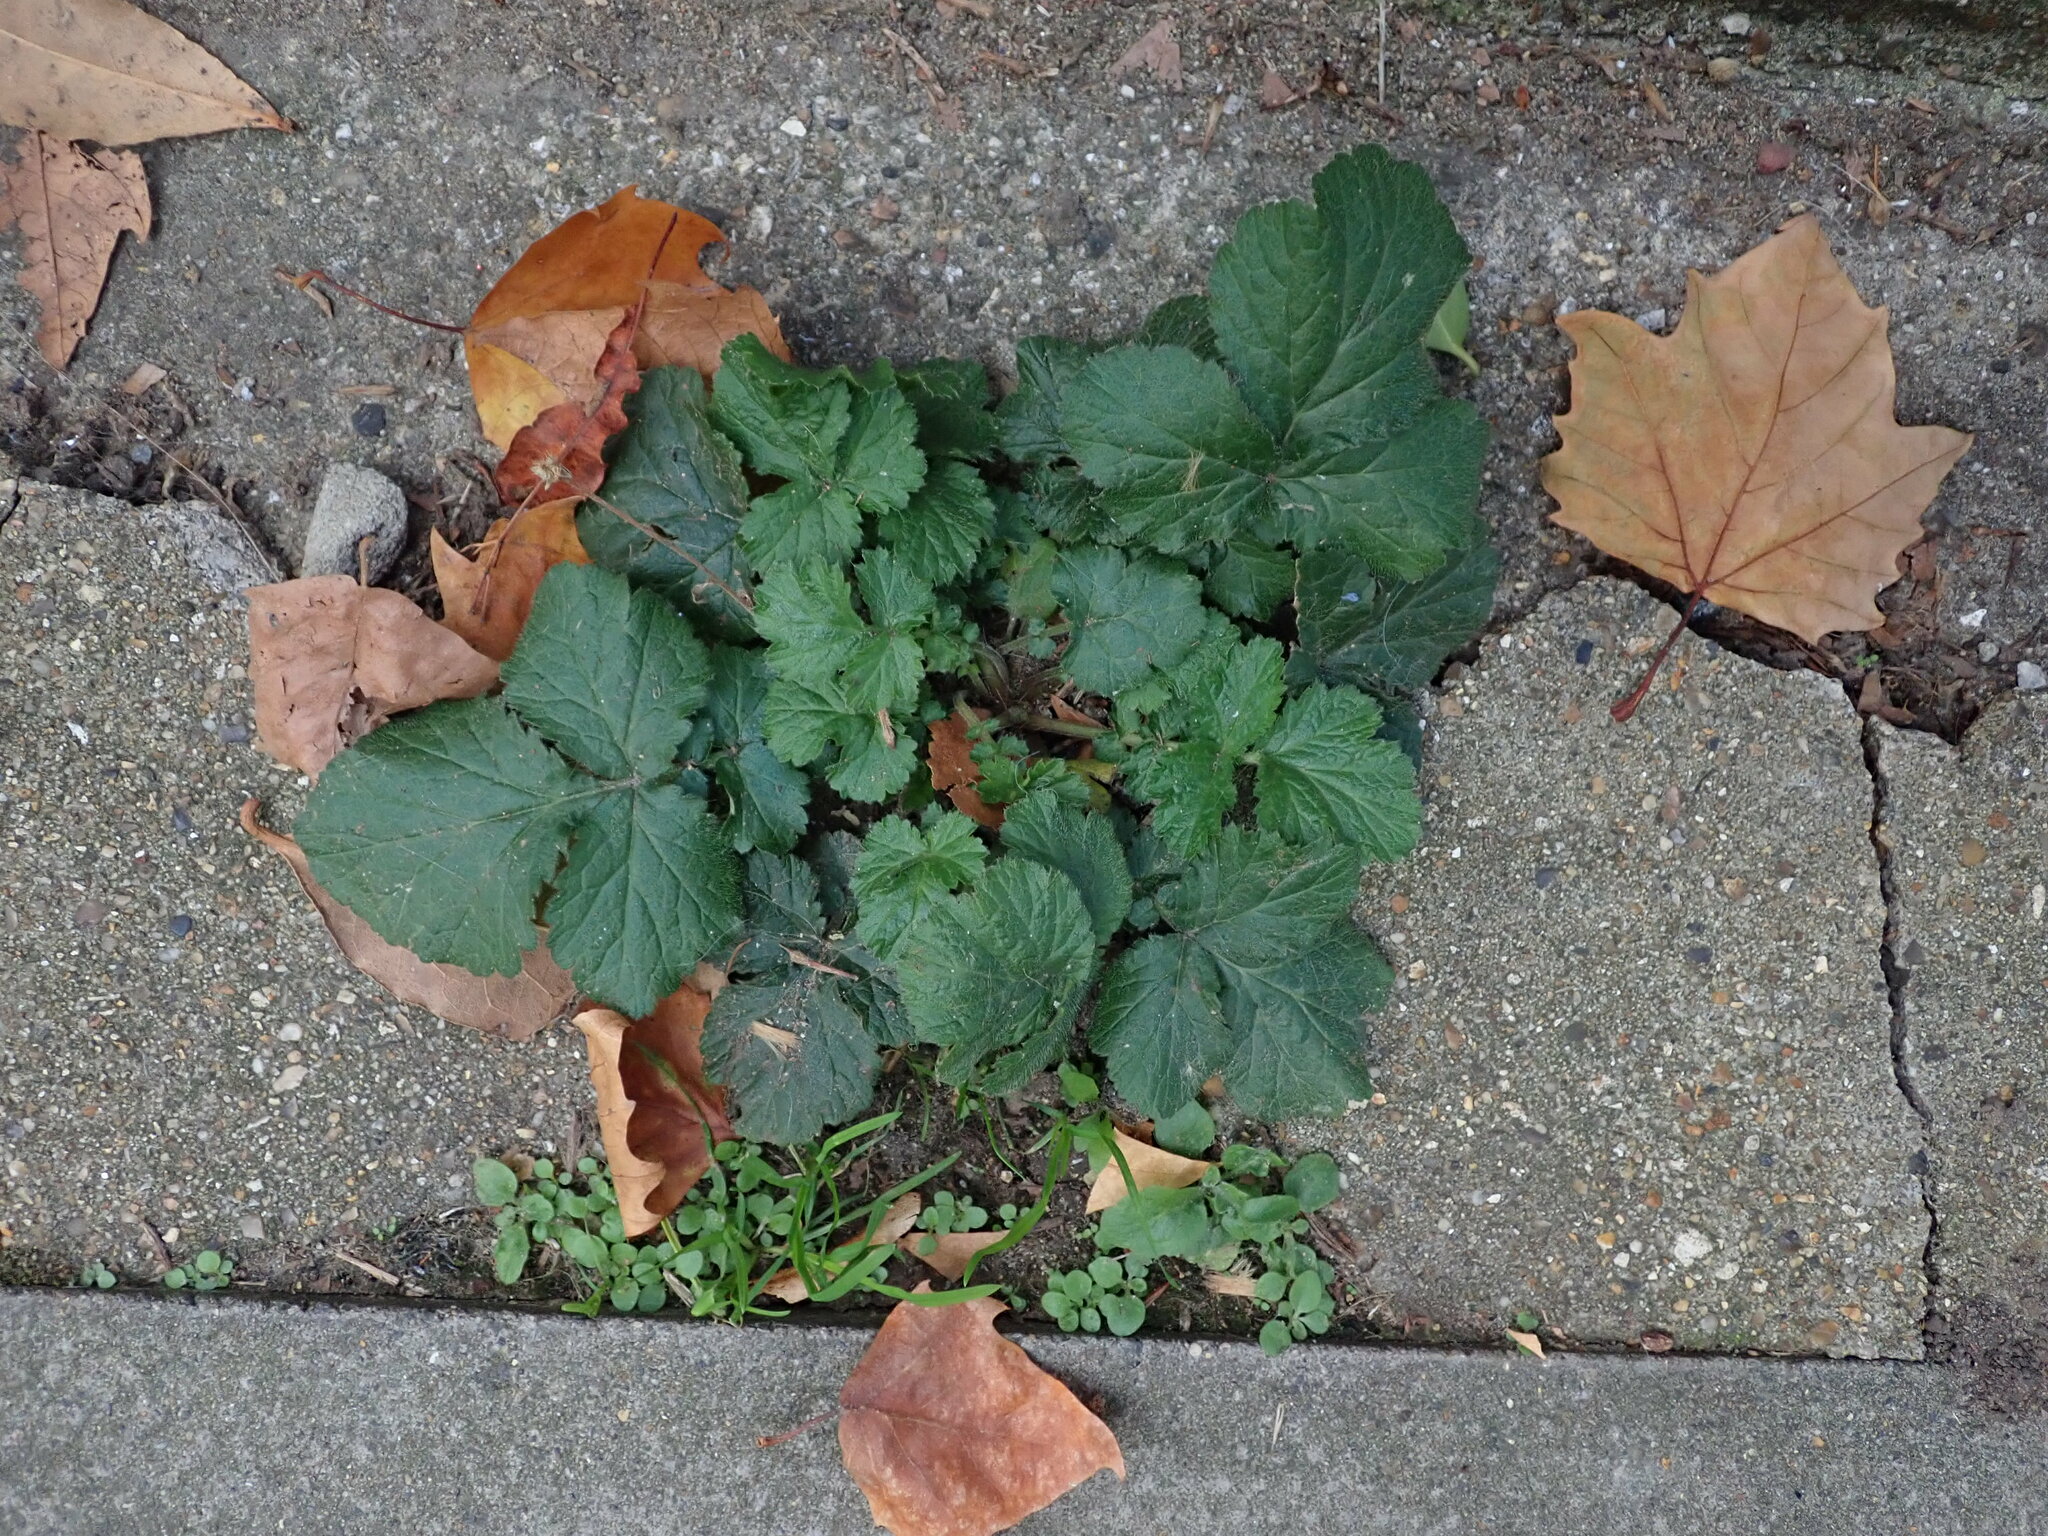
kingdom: Plantae
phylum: Tracheophyta
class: Magnoliopsida
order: Rosales
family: Rosaceae
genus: Geum
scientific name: Geum urbanum
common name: Wood avens
